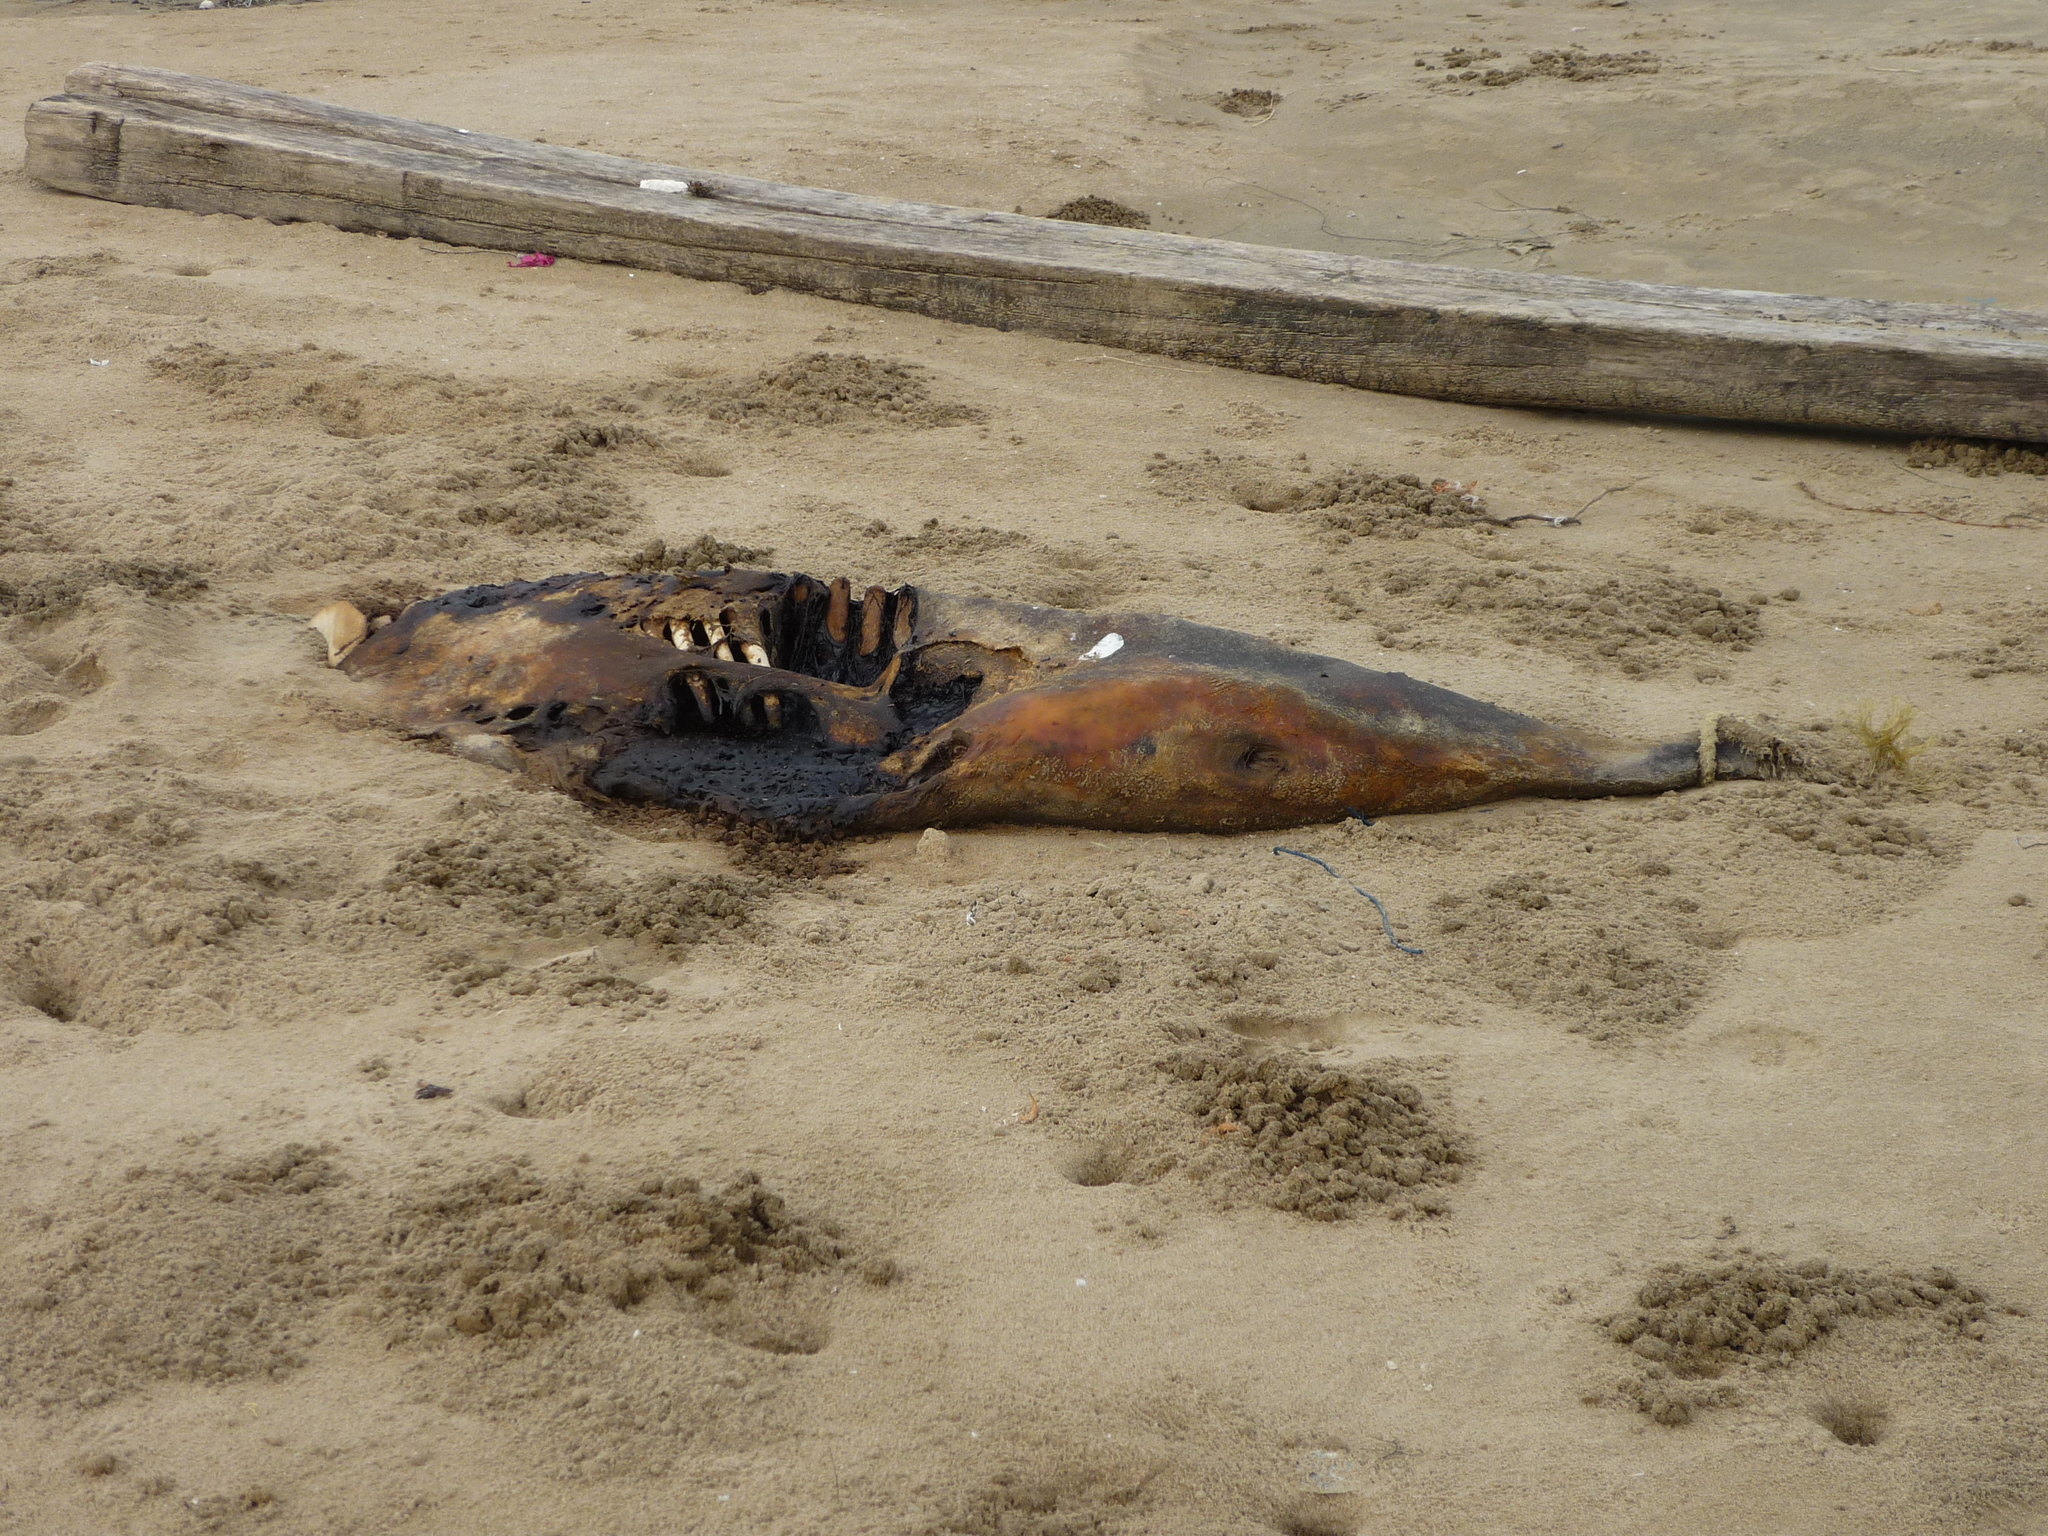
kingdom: Animalia
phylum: Chordata
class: Mammalia
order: Cetacea
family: Delphinidae
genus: Sousa
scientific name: Sousa chinensis
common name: Chinese white dolphin
